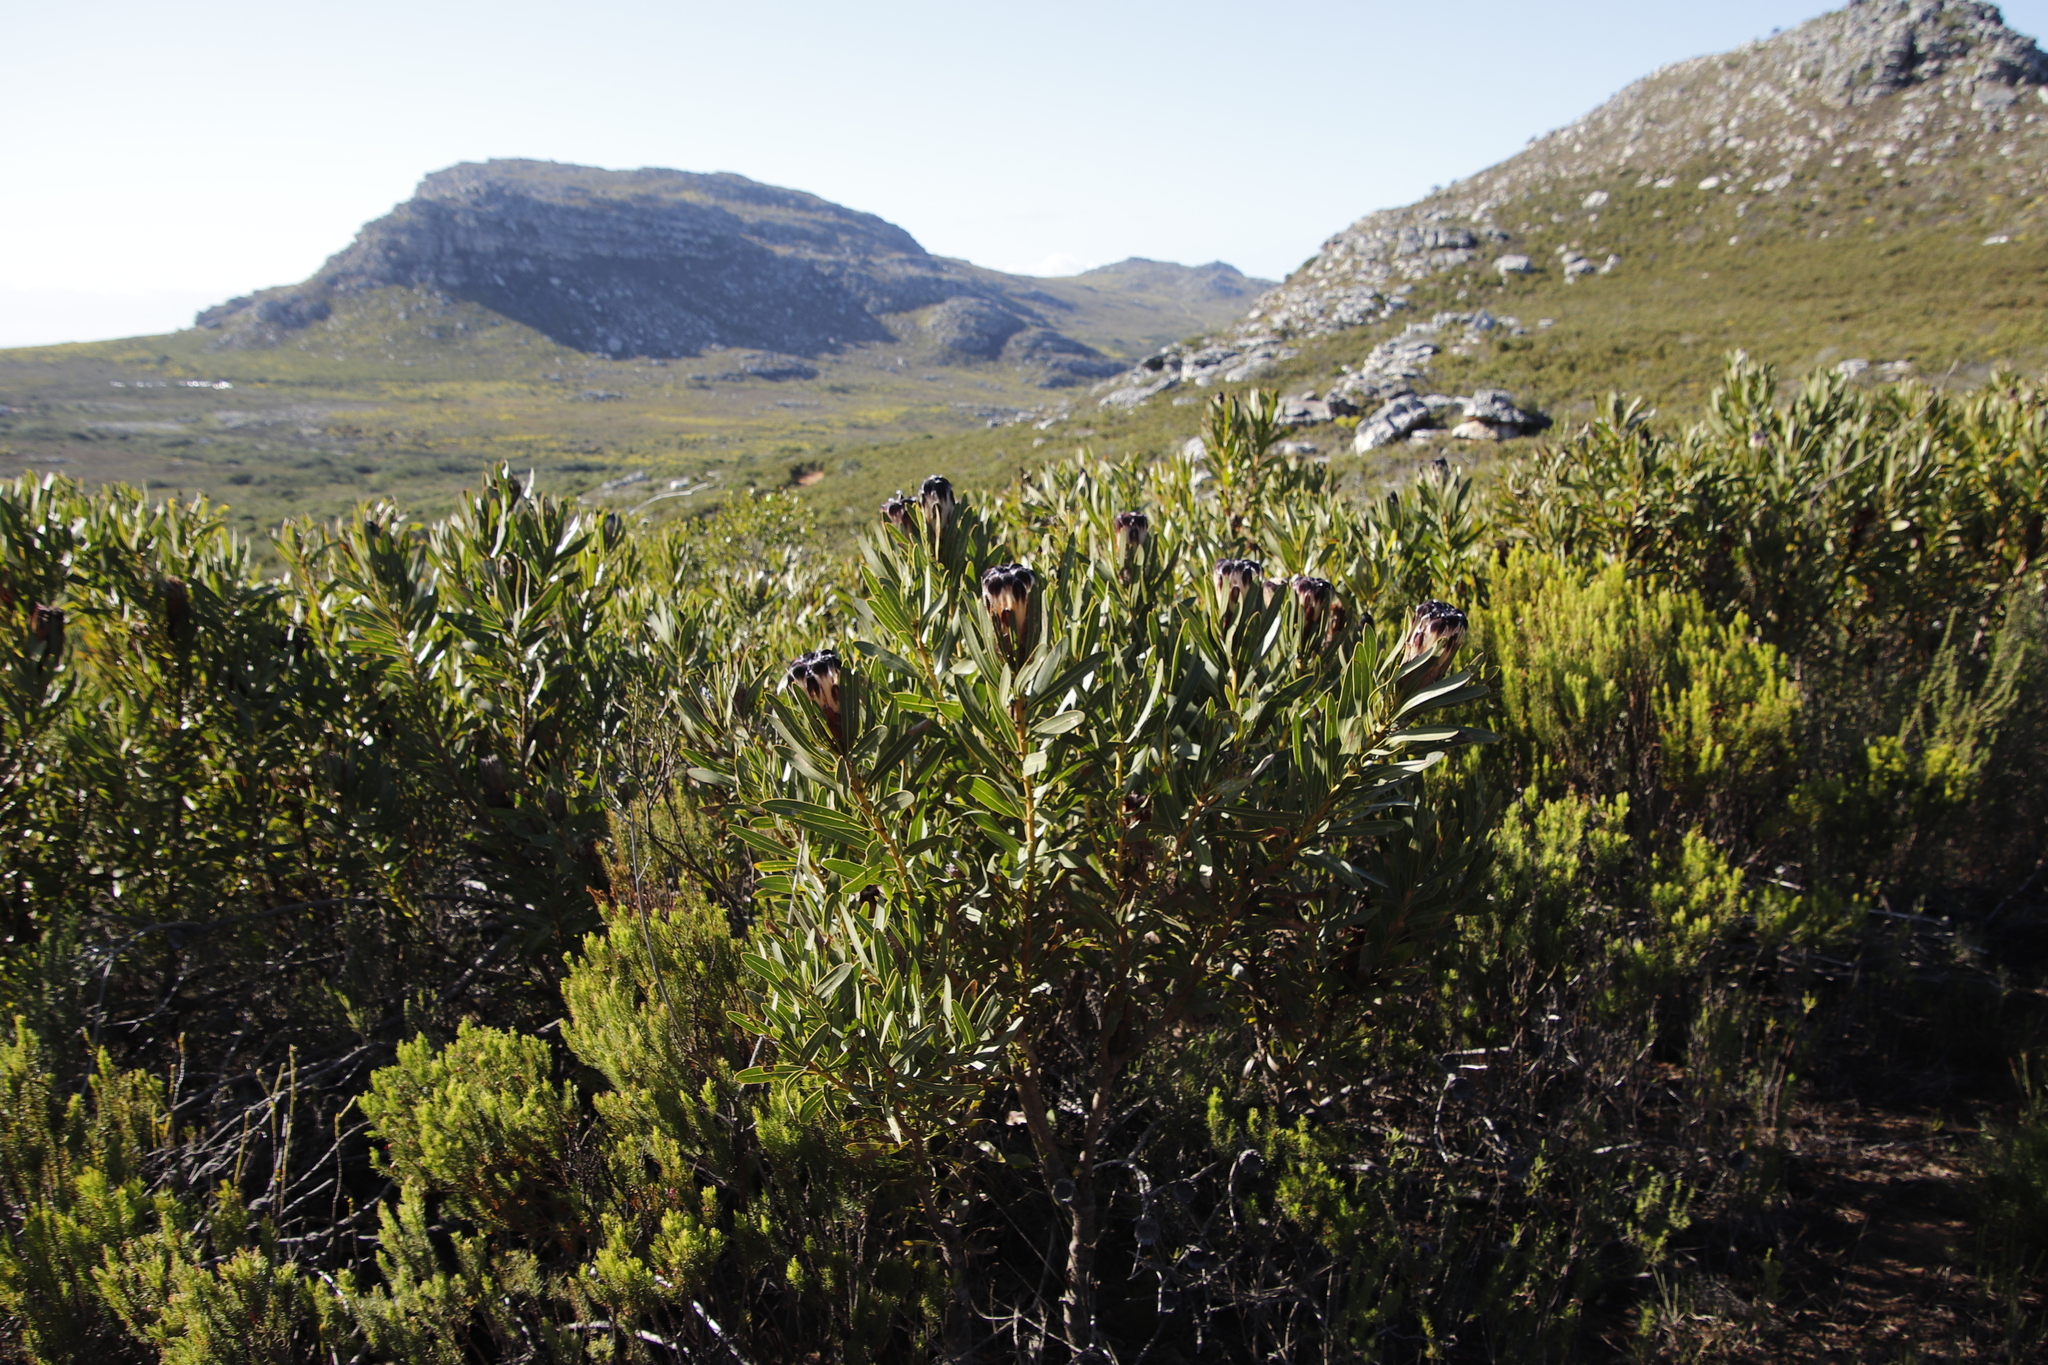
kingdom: Plantae
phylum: Tracheophyta
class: Magnoliopsida
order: Proteales
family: Proteaceae
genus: Protea
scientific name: Protea lepidocarpodendron
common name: Black-bearded protea
